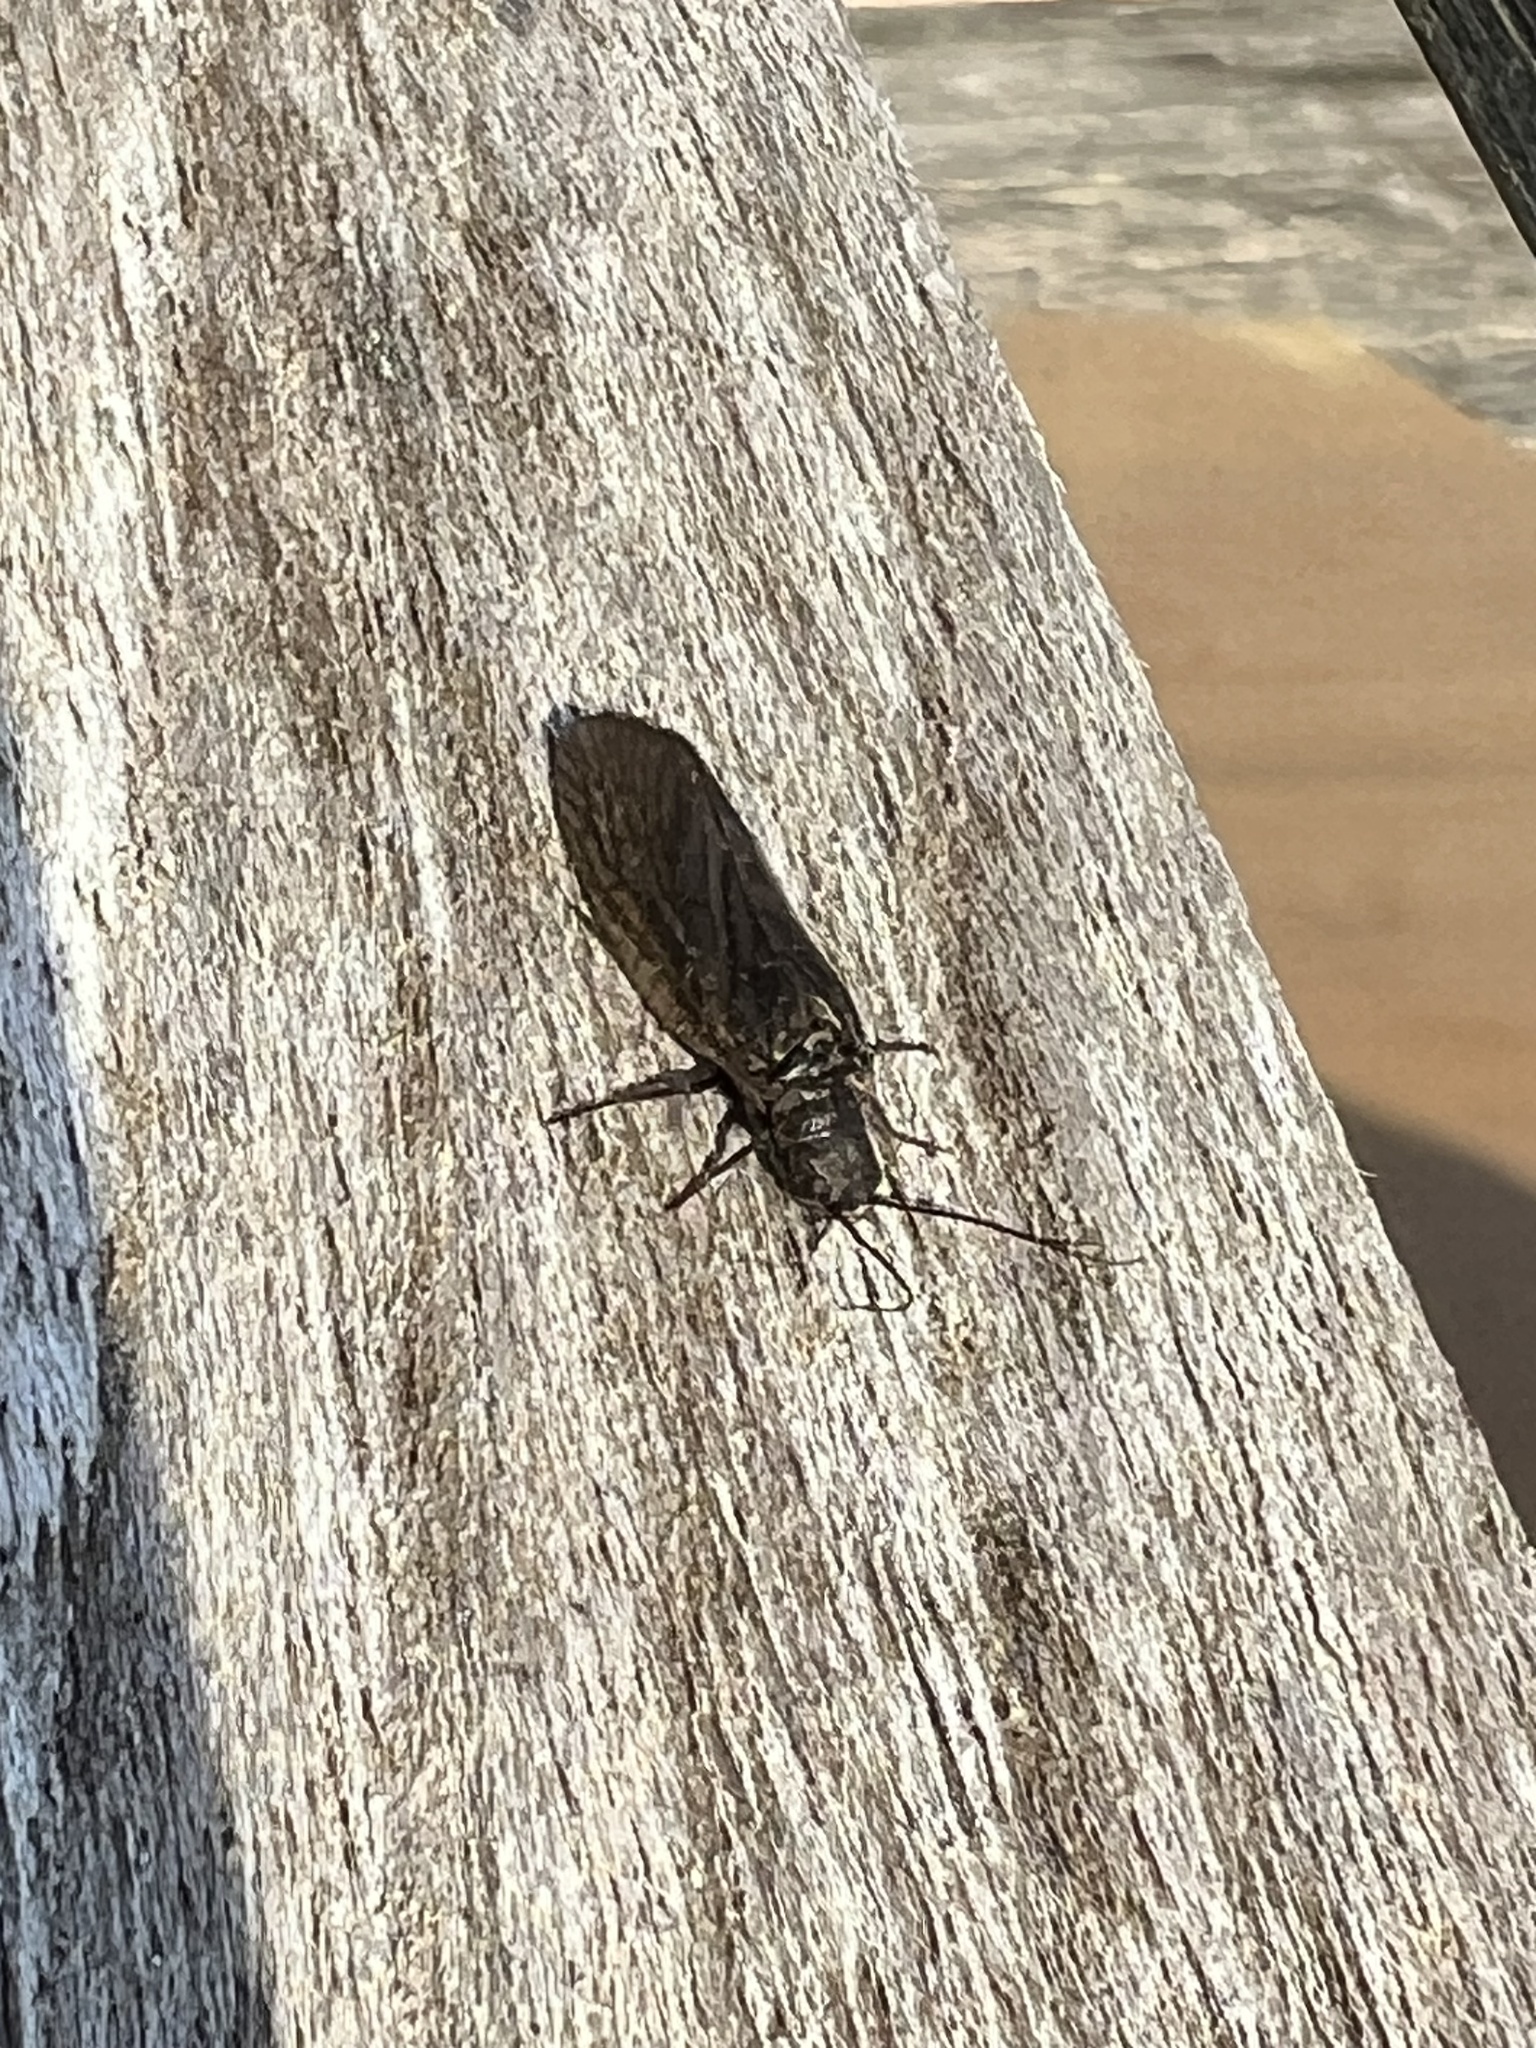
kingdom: Animalia
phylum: Arthropoda
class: Insecta
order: Megaloptera
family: Sialidae
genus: Sialis
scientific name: Sialis
